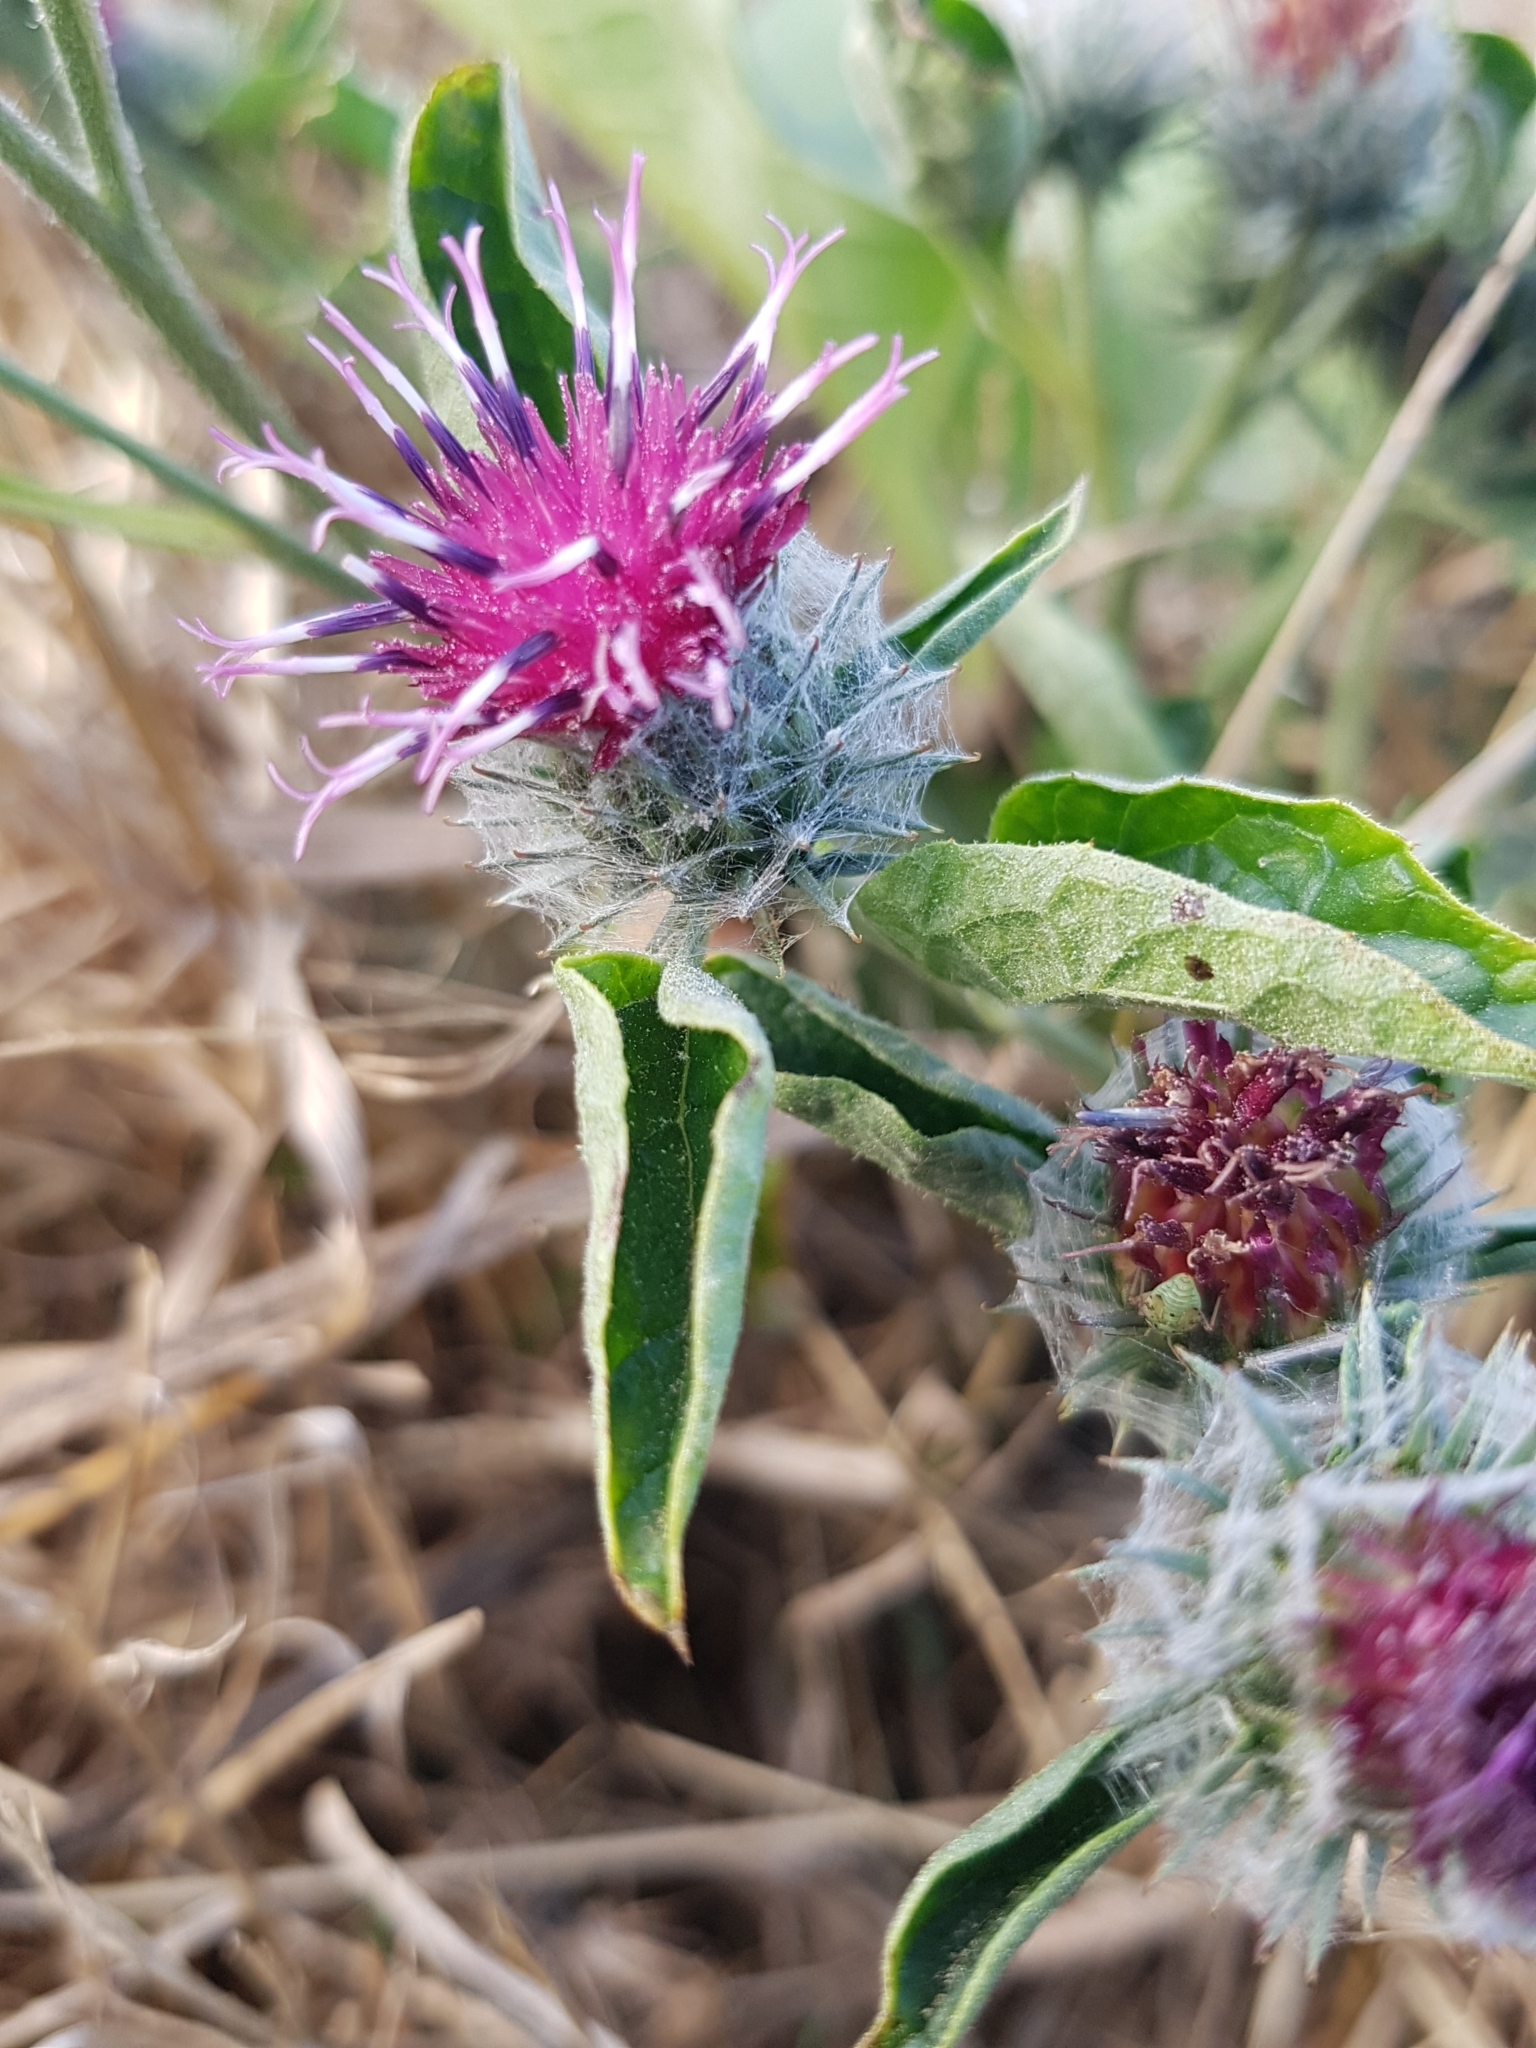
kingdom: Plantae
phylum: Tracheophyta
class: Magnoliopsida
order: Asterales
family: Asteraceae
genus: Arctium
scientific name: Arctium tomentosum
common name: Woolly burdock
